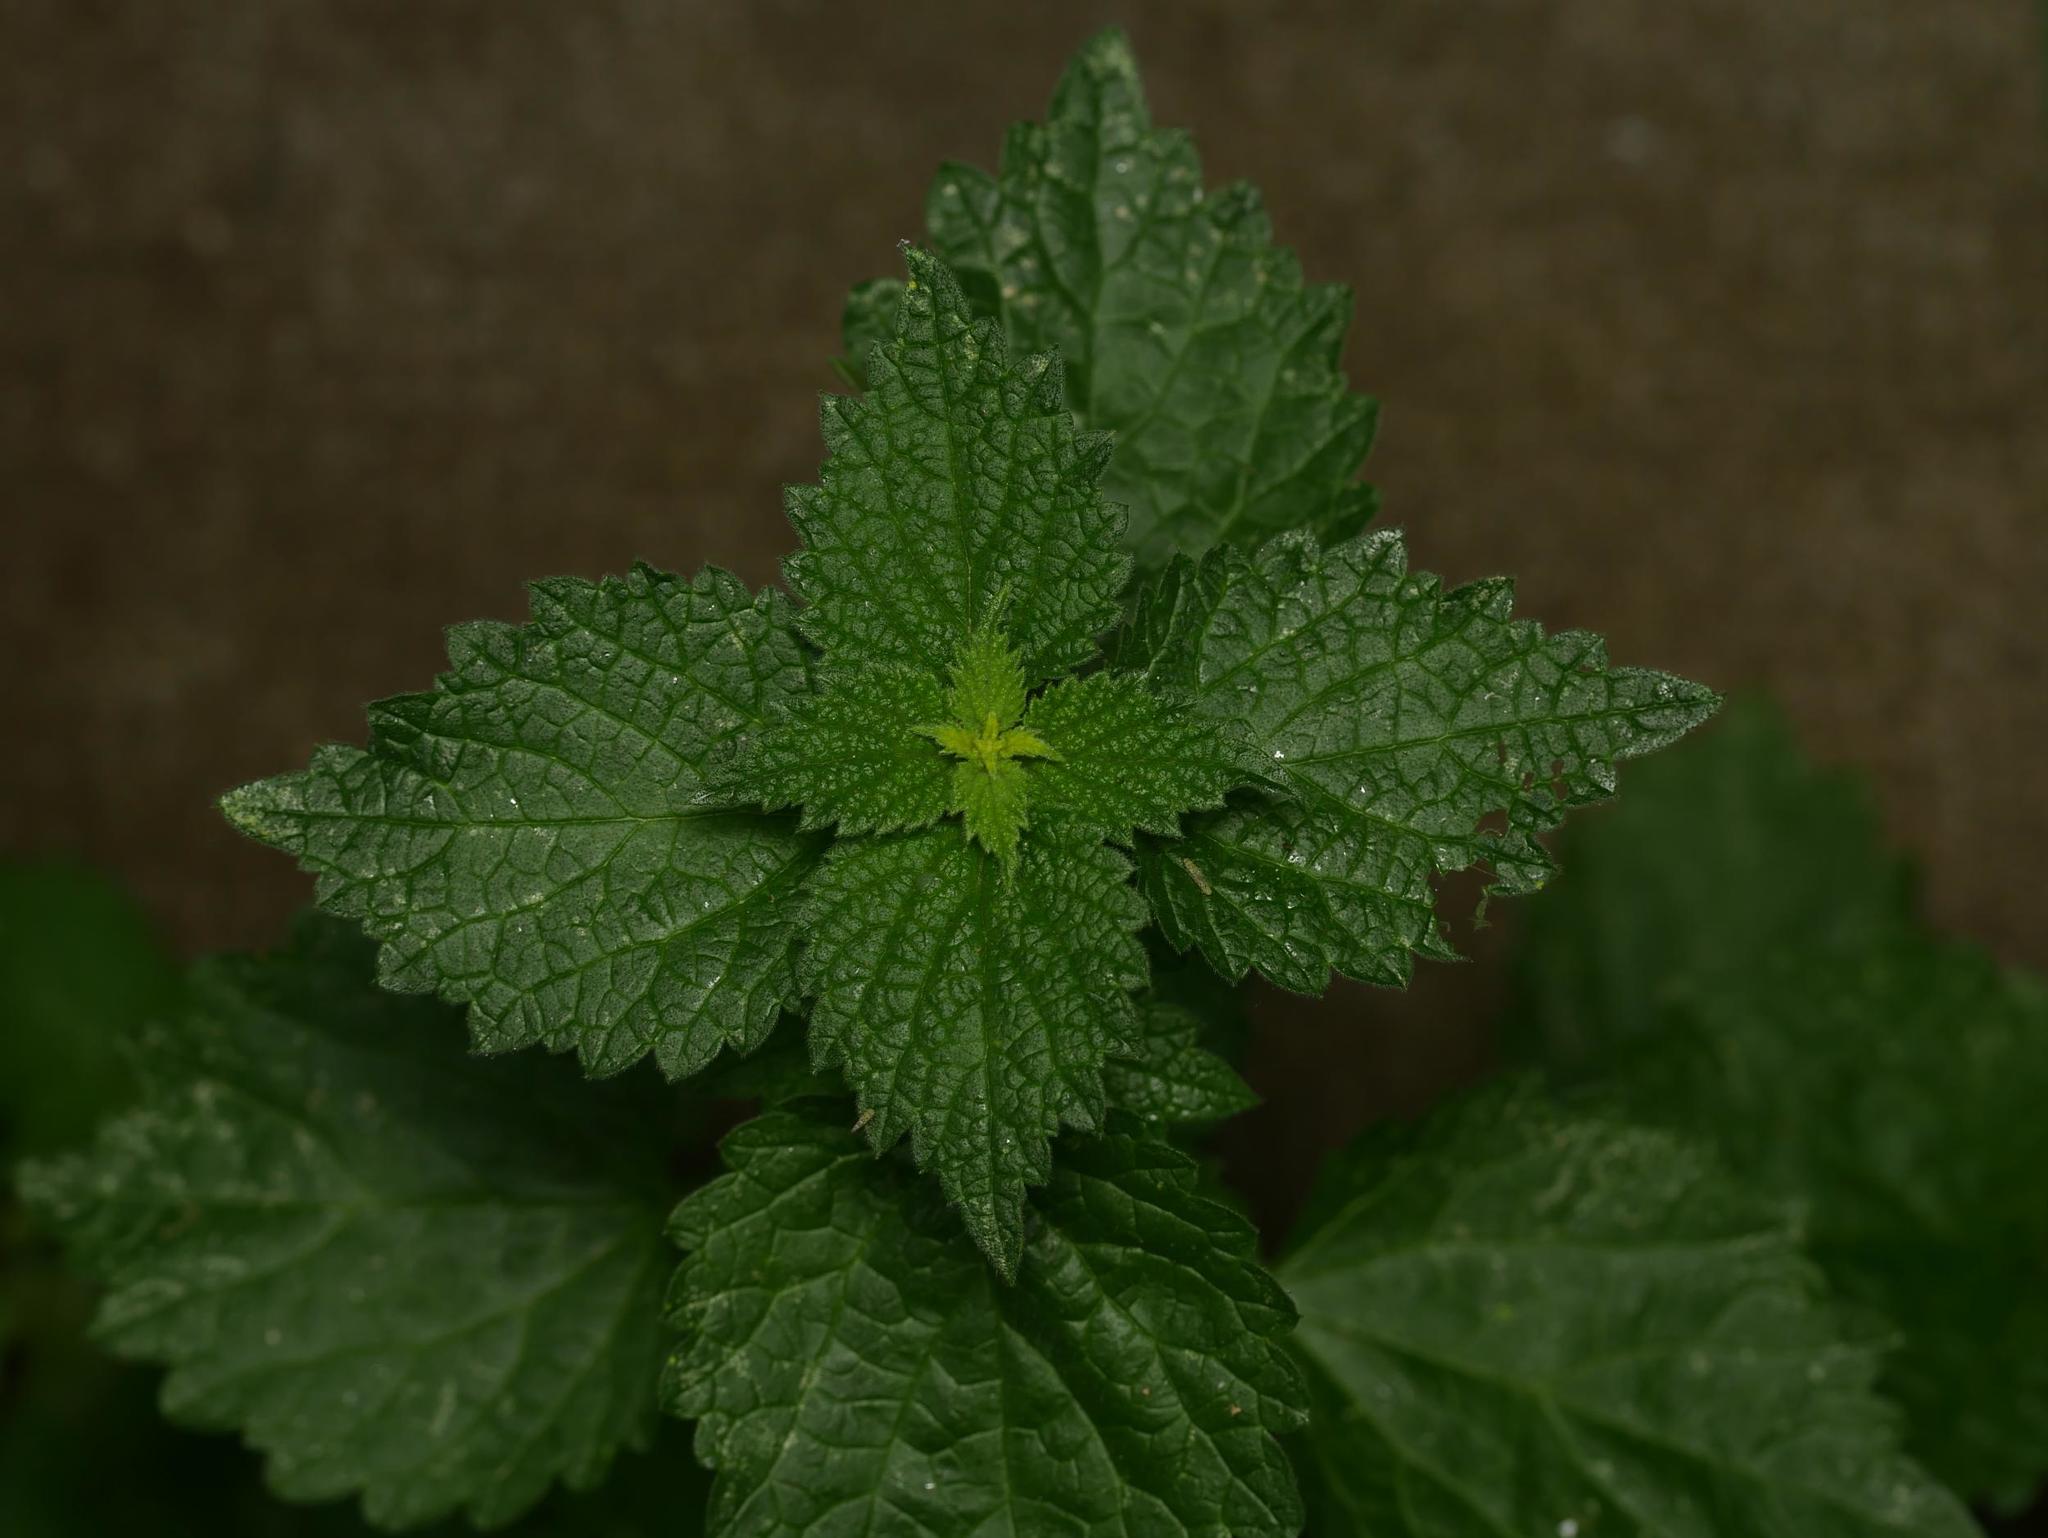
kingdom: Plantae
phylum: Tracheophyta
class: Magnoliopsida
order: Lamiales
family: Lamiaceae
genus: Ballota
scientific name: Ballota nigra
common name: Black horehound
